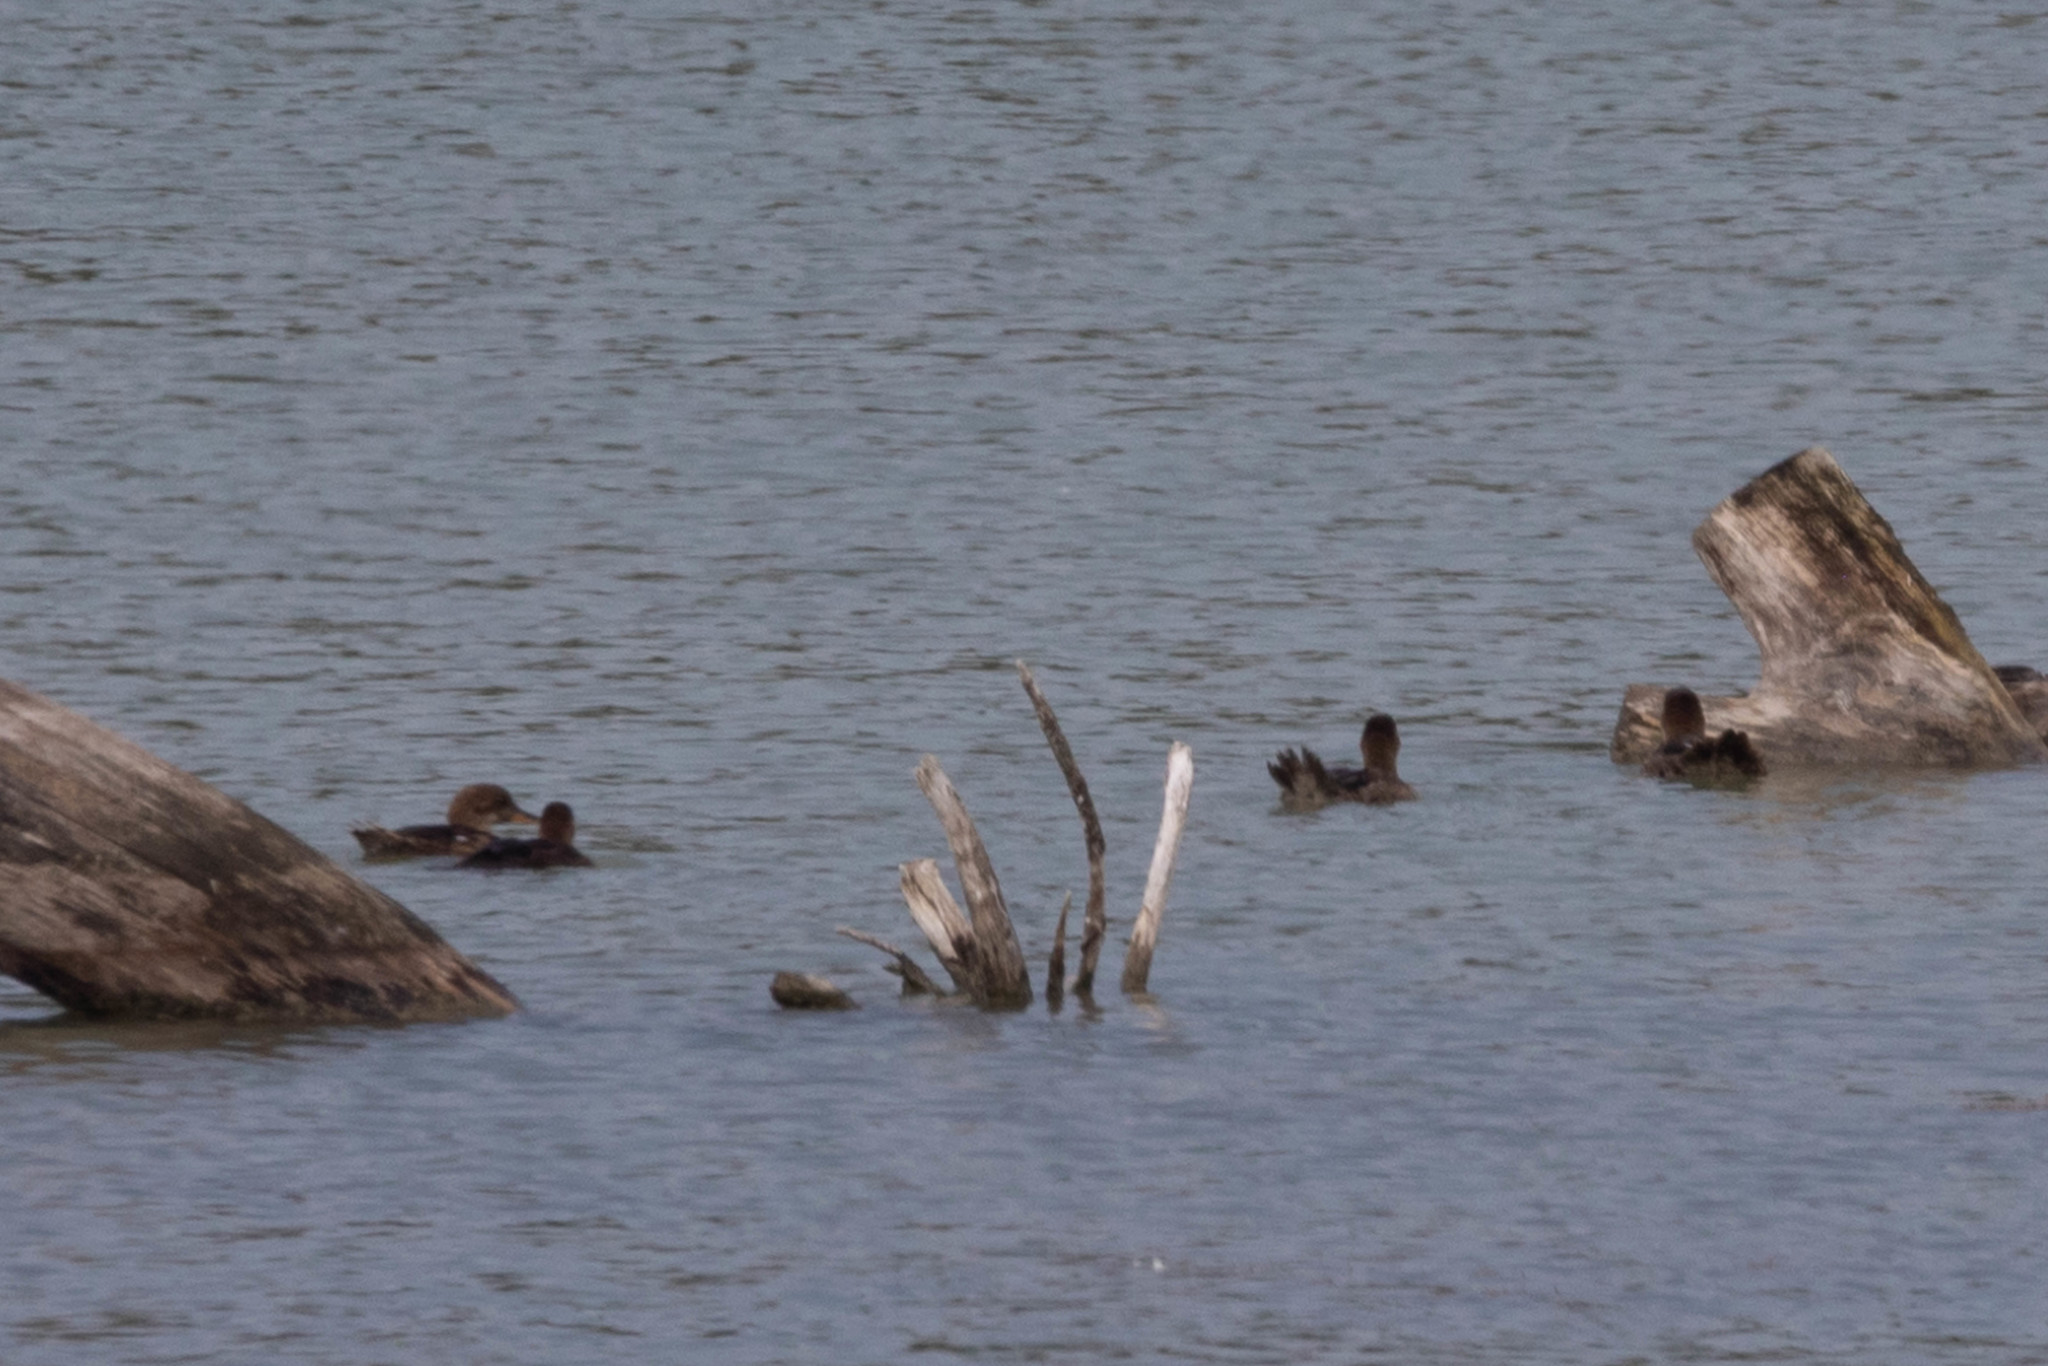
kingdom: Animalia
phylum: Chordata
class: Aves
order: Anseriformes
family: Anatidae
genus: Lophodytes
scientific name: Lophodytes cucullatus
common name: Hooded merganser
